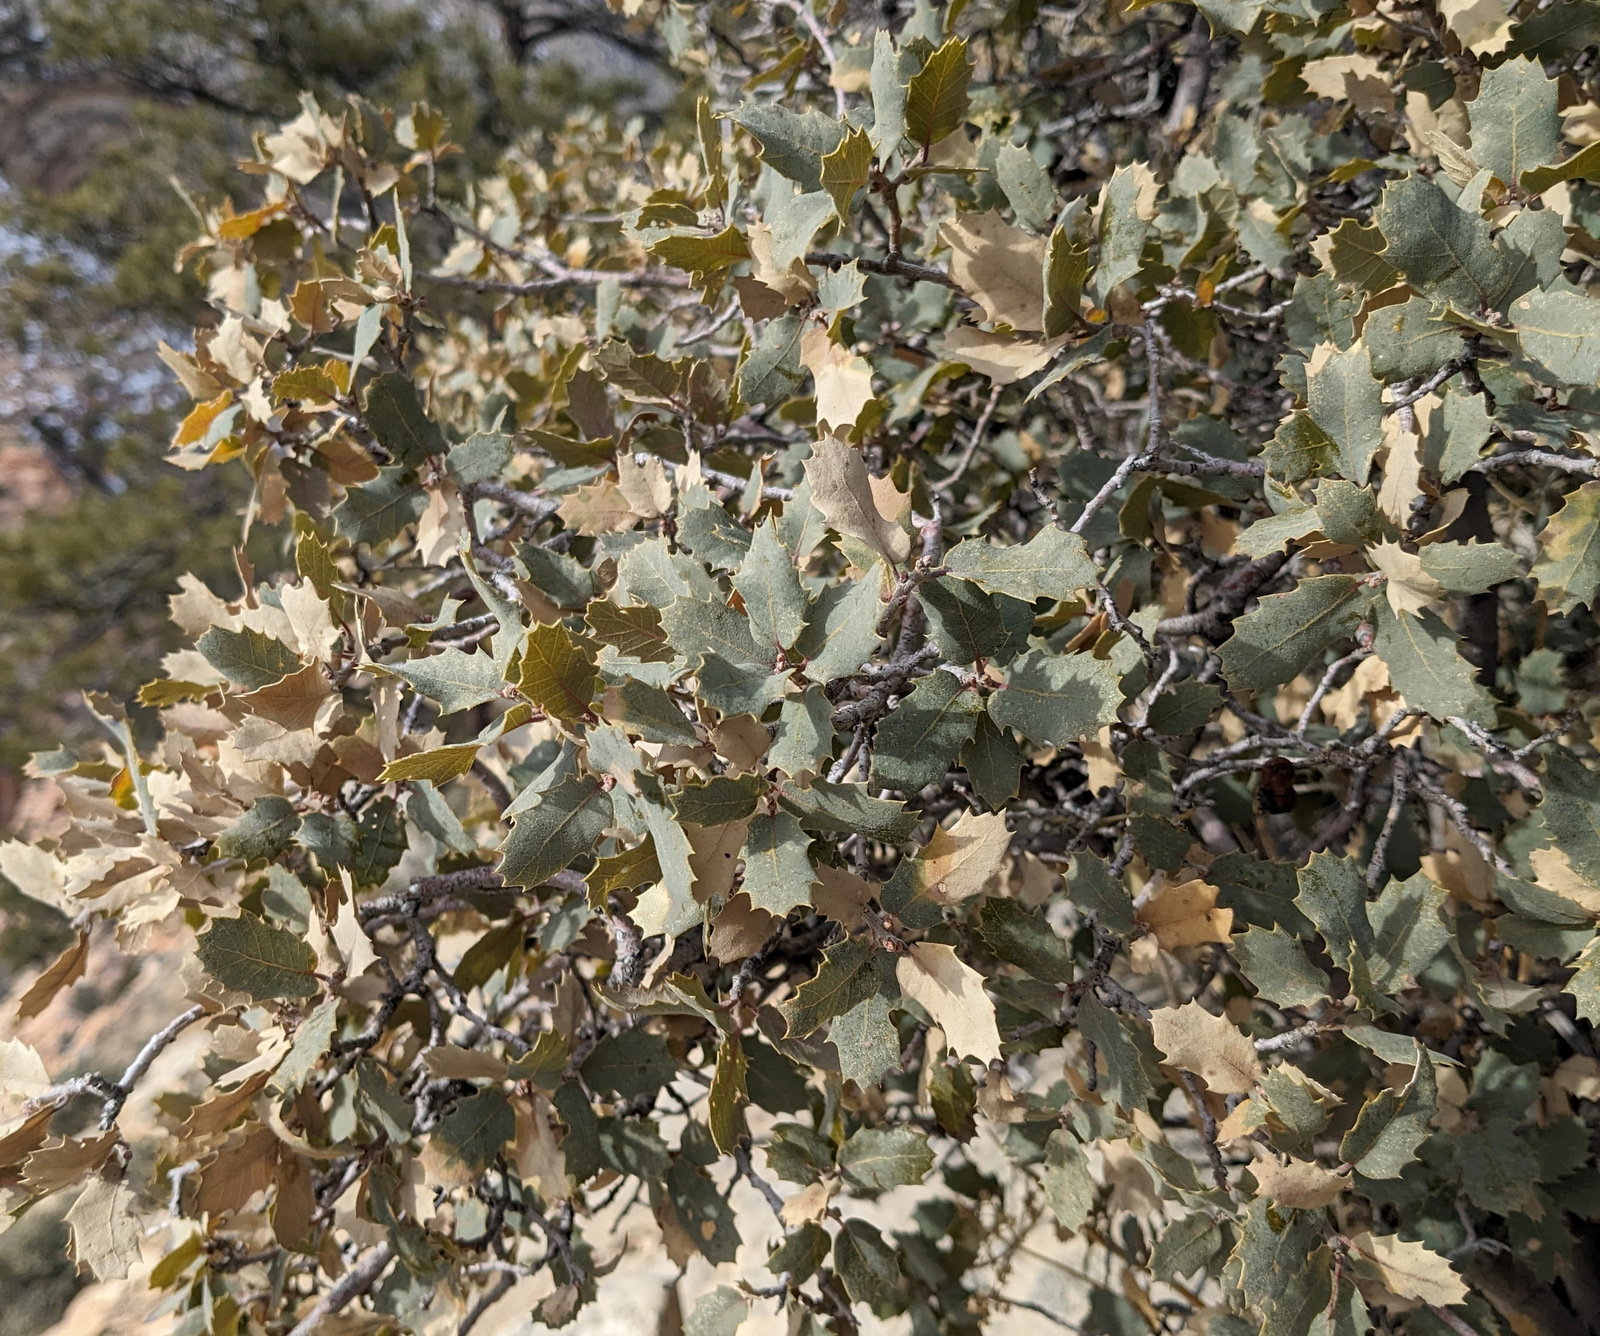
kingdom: Plantae
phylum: Tracheophyta
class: Magnoliopsida
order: Fagales
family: Fagaceae
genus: Quercus
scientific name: Quercus turbinella
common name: Sonoran scrub oak
